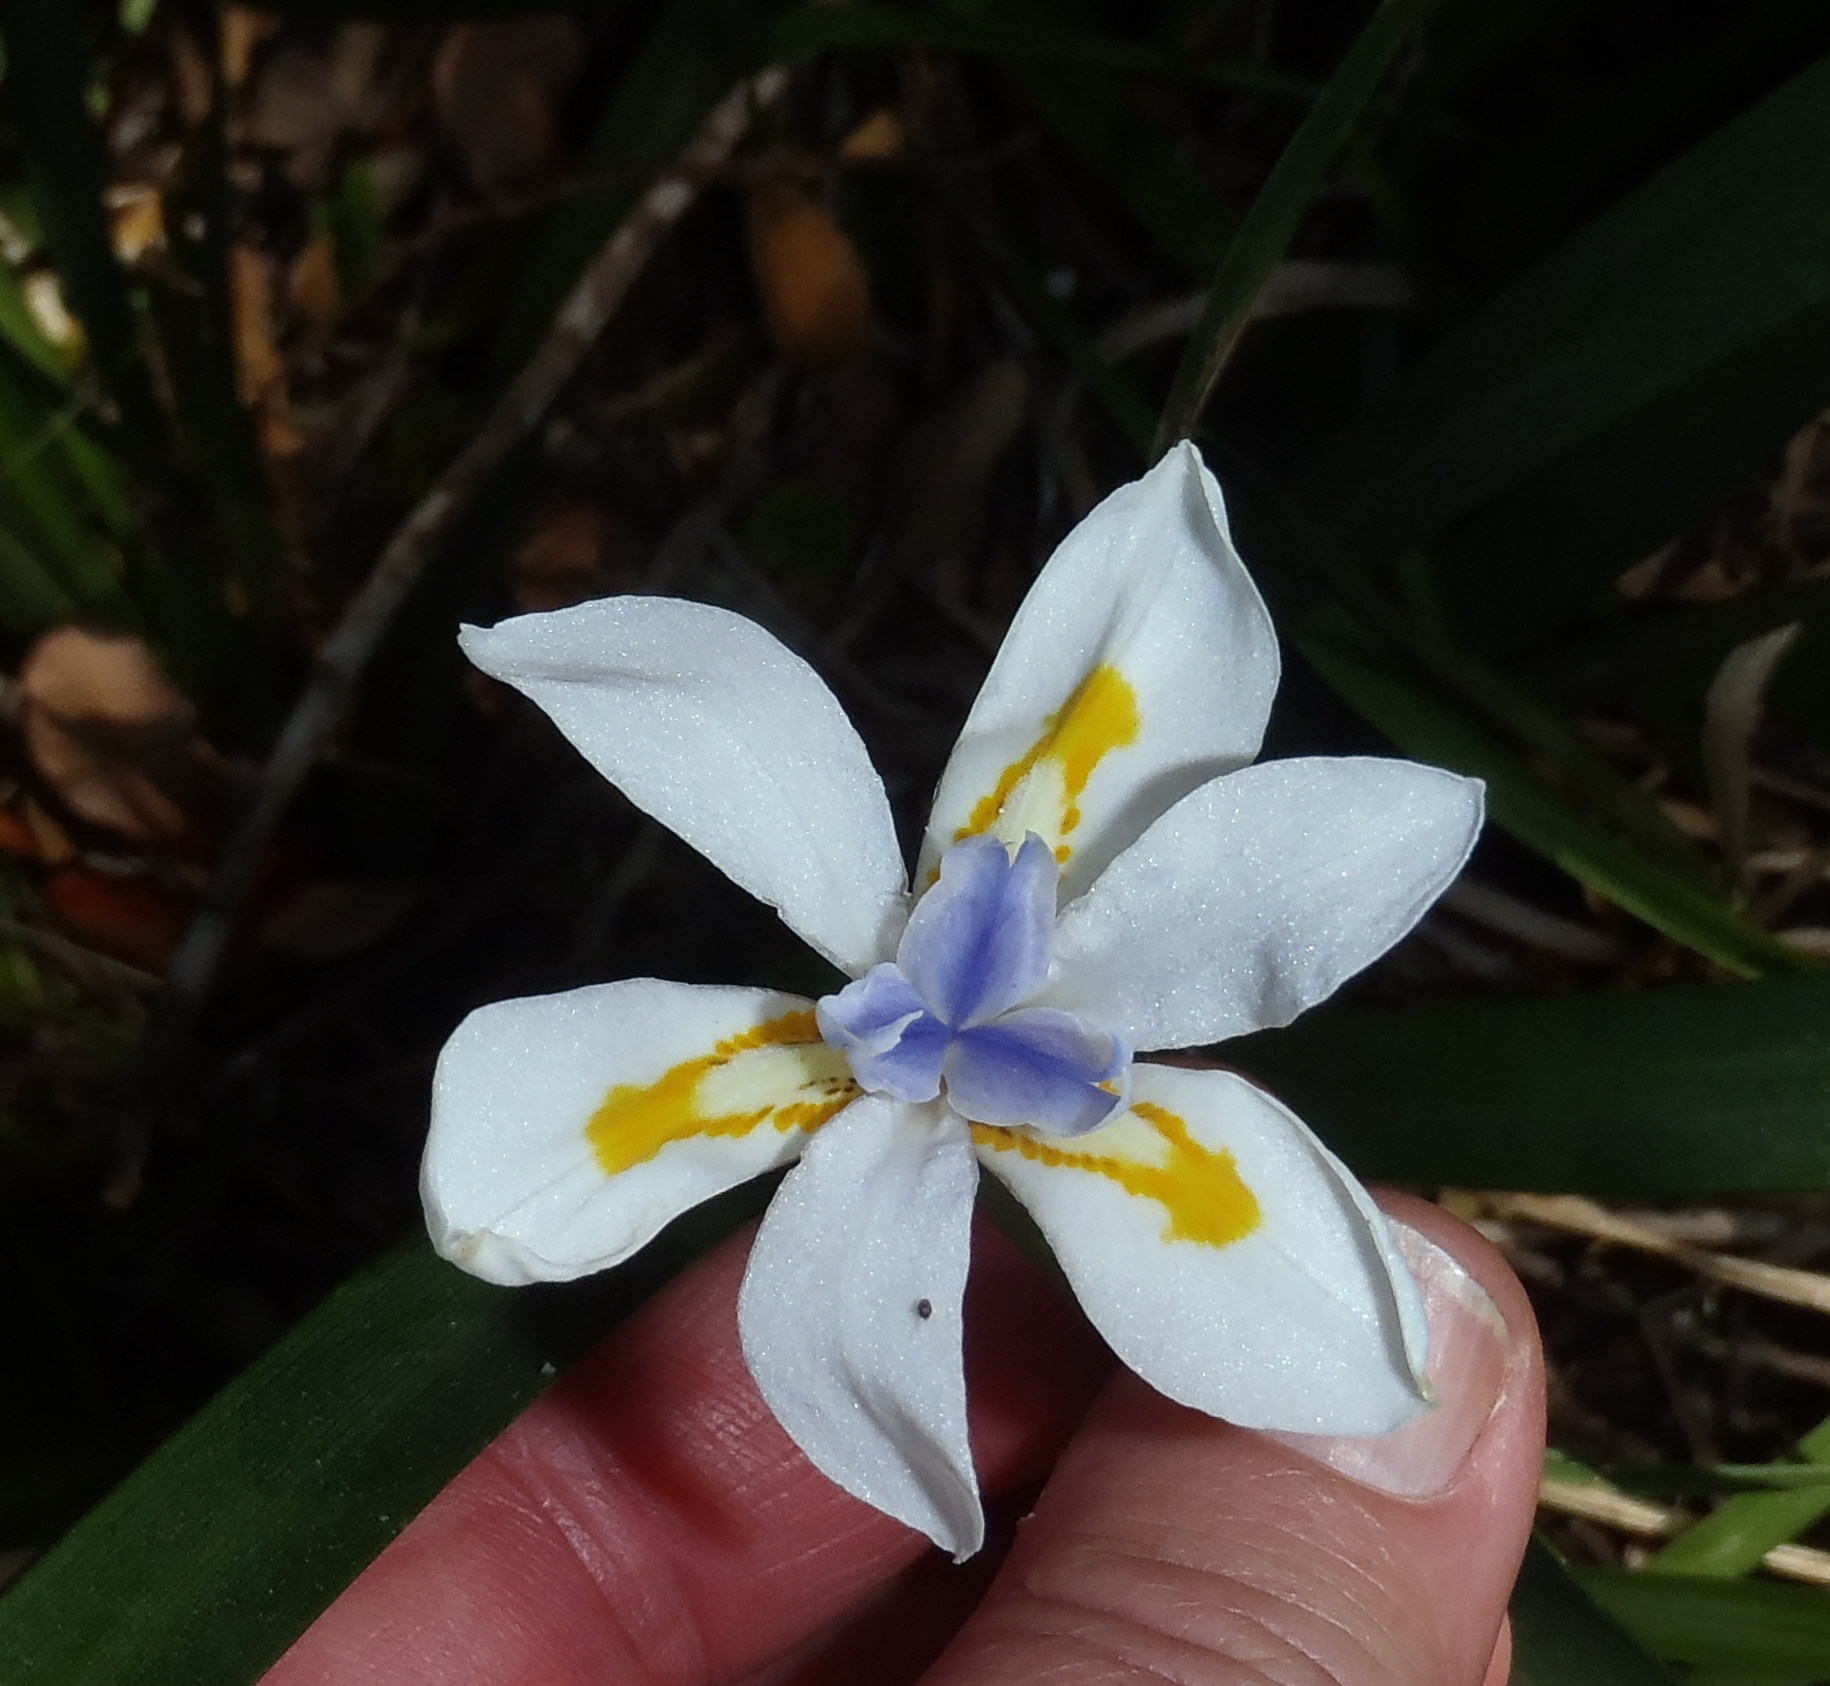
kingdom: Plantae
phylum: Tracheophyta
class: Liliopsida
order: Asparagales
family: Iridaceae
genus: Dietes
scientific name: Dietes iridioides
